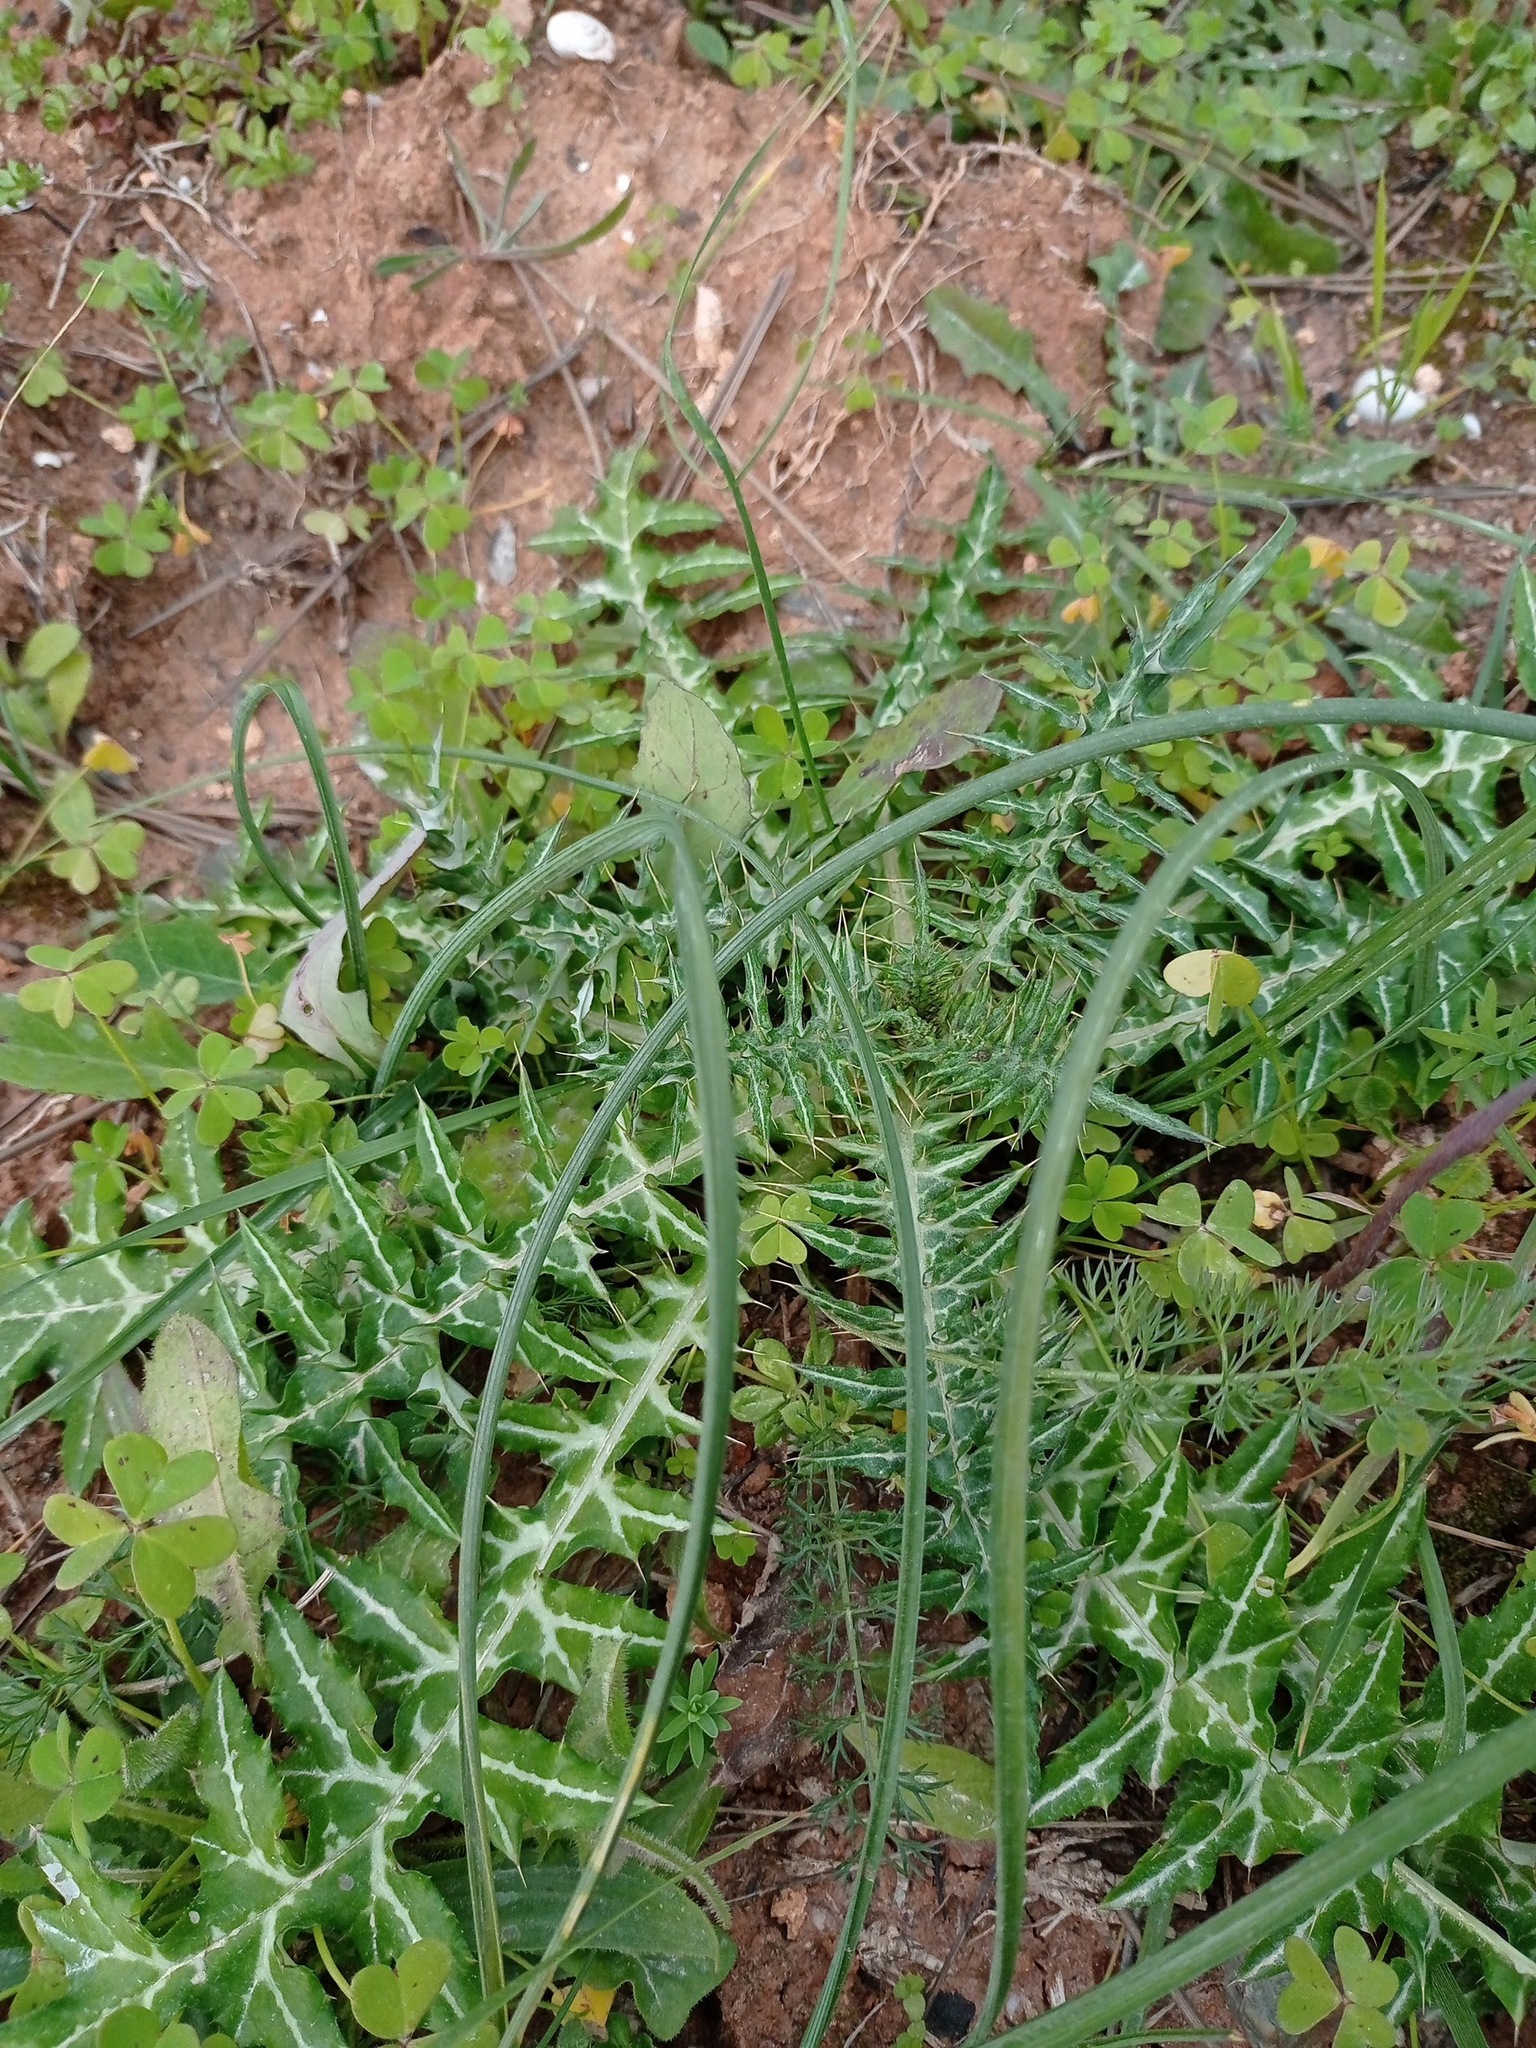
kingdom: Plantae
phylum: Tracheophyta
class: Magnoliopsida
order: Asterales
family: Asteraceae
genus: Galactites
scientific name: Galactites tomentosa
